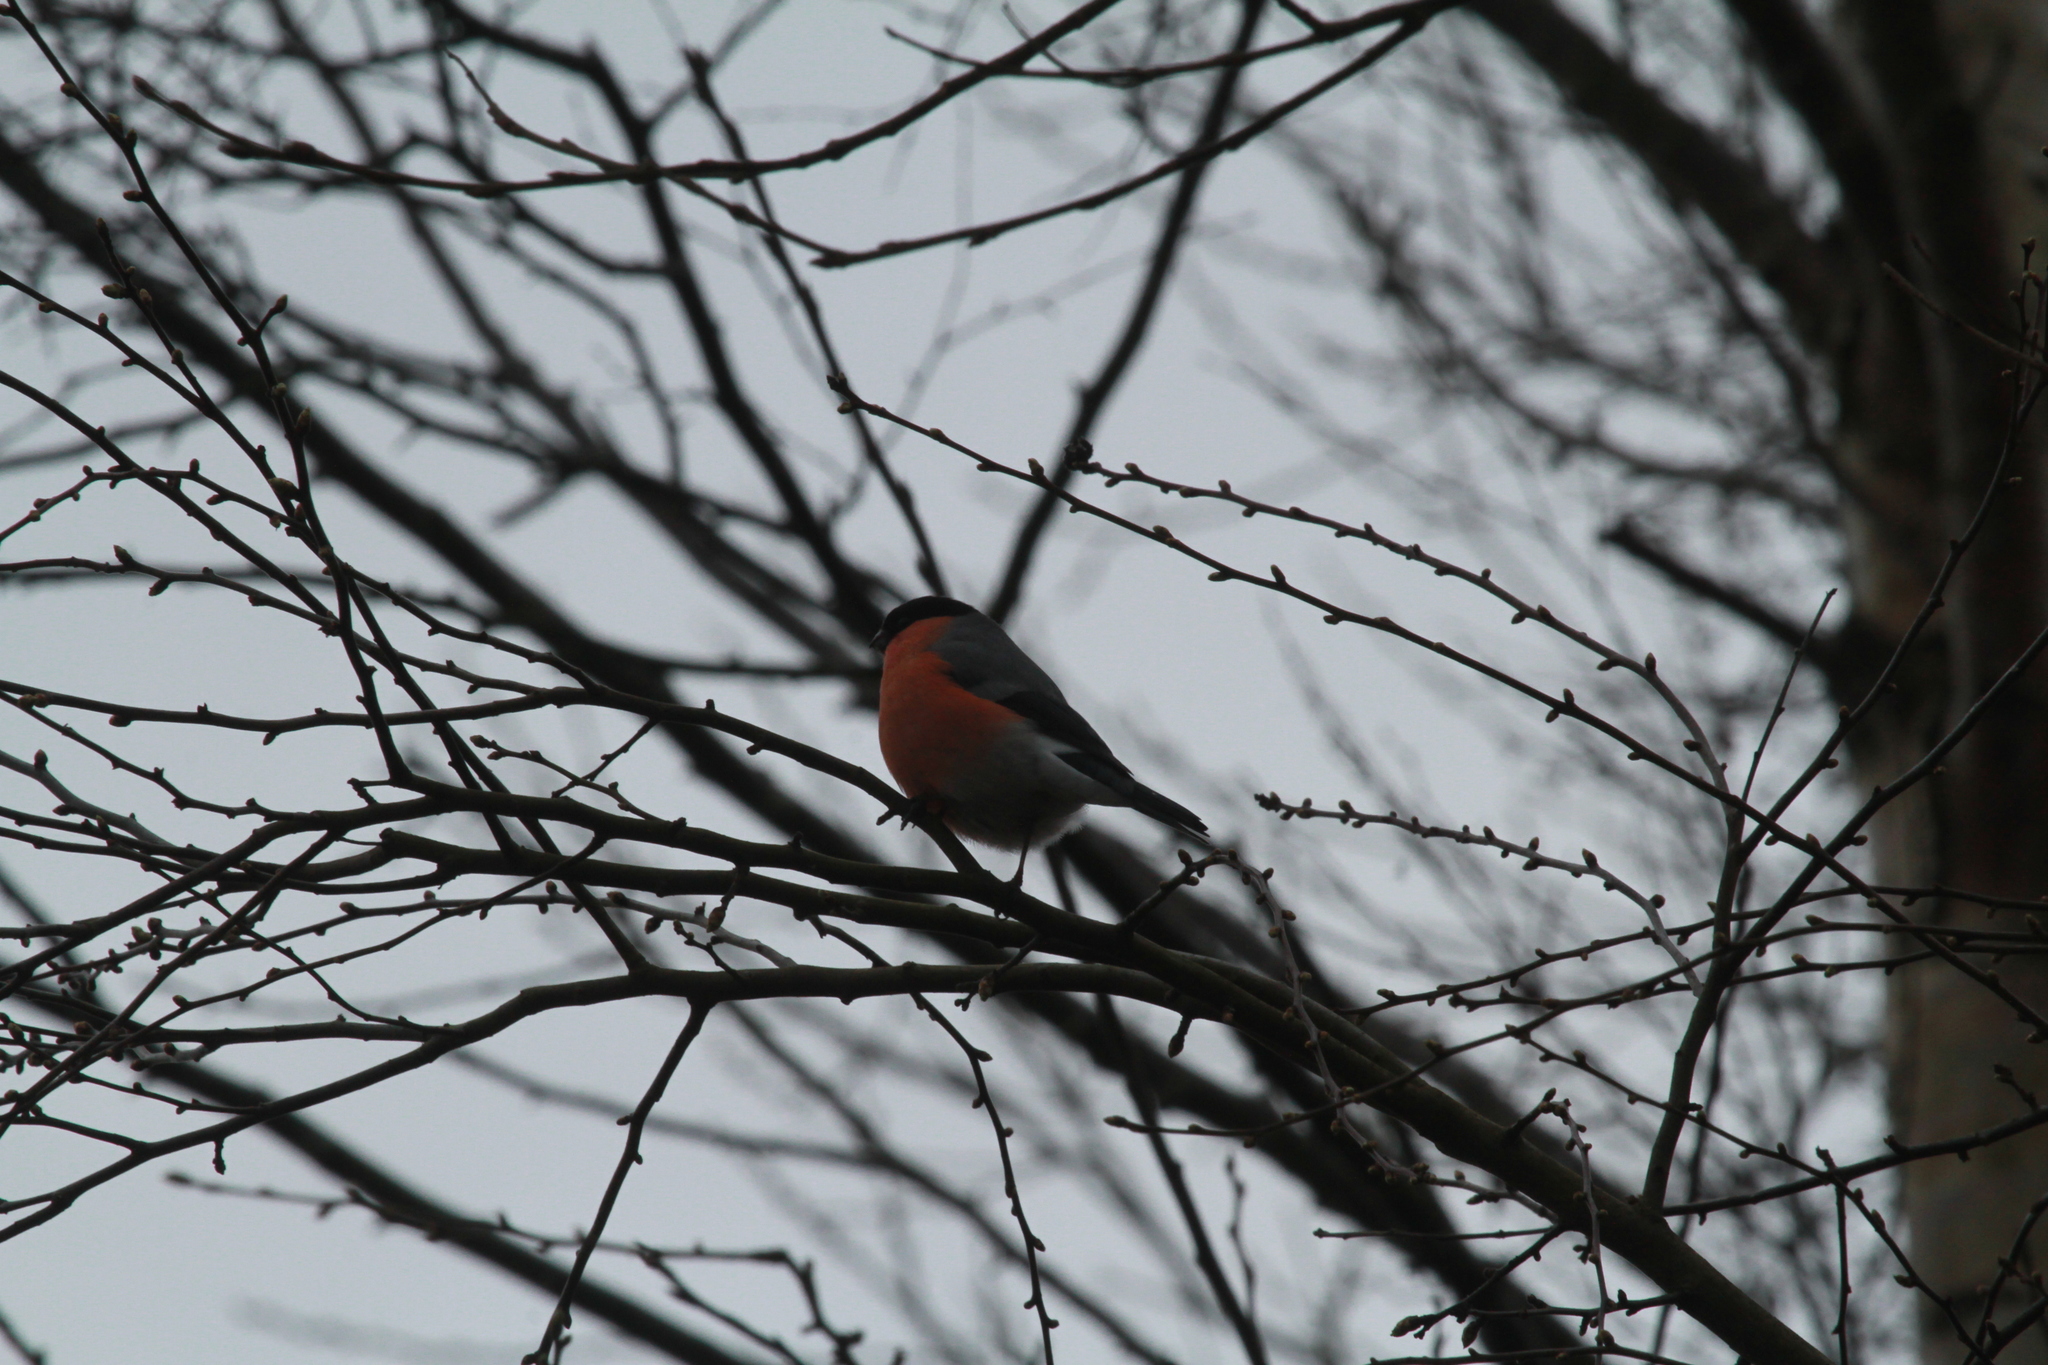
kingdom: Animalia
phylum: Chordata
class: Aves
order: Passeriformes
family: Fringillidae
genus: Pyrrhula
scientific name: Pyrrhula pyrrhula
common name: Eurasian bullfinch
